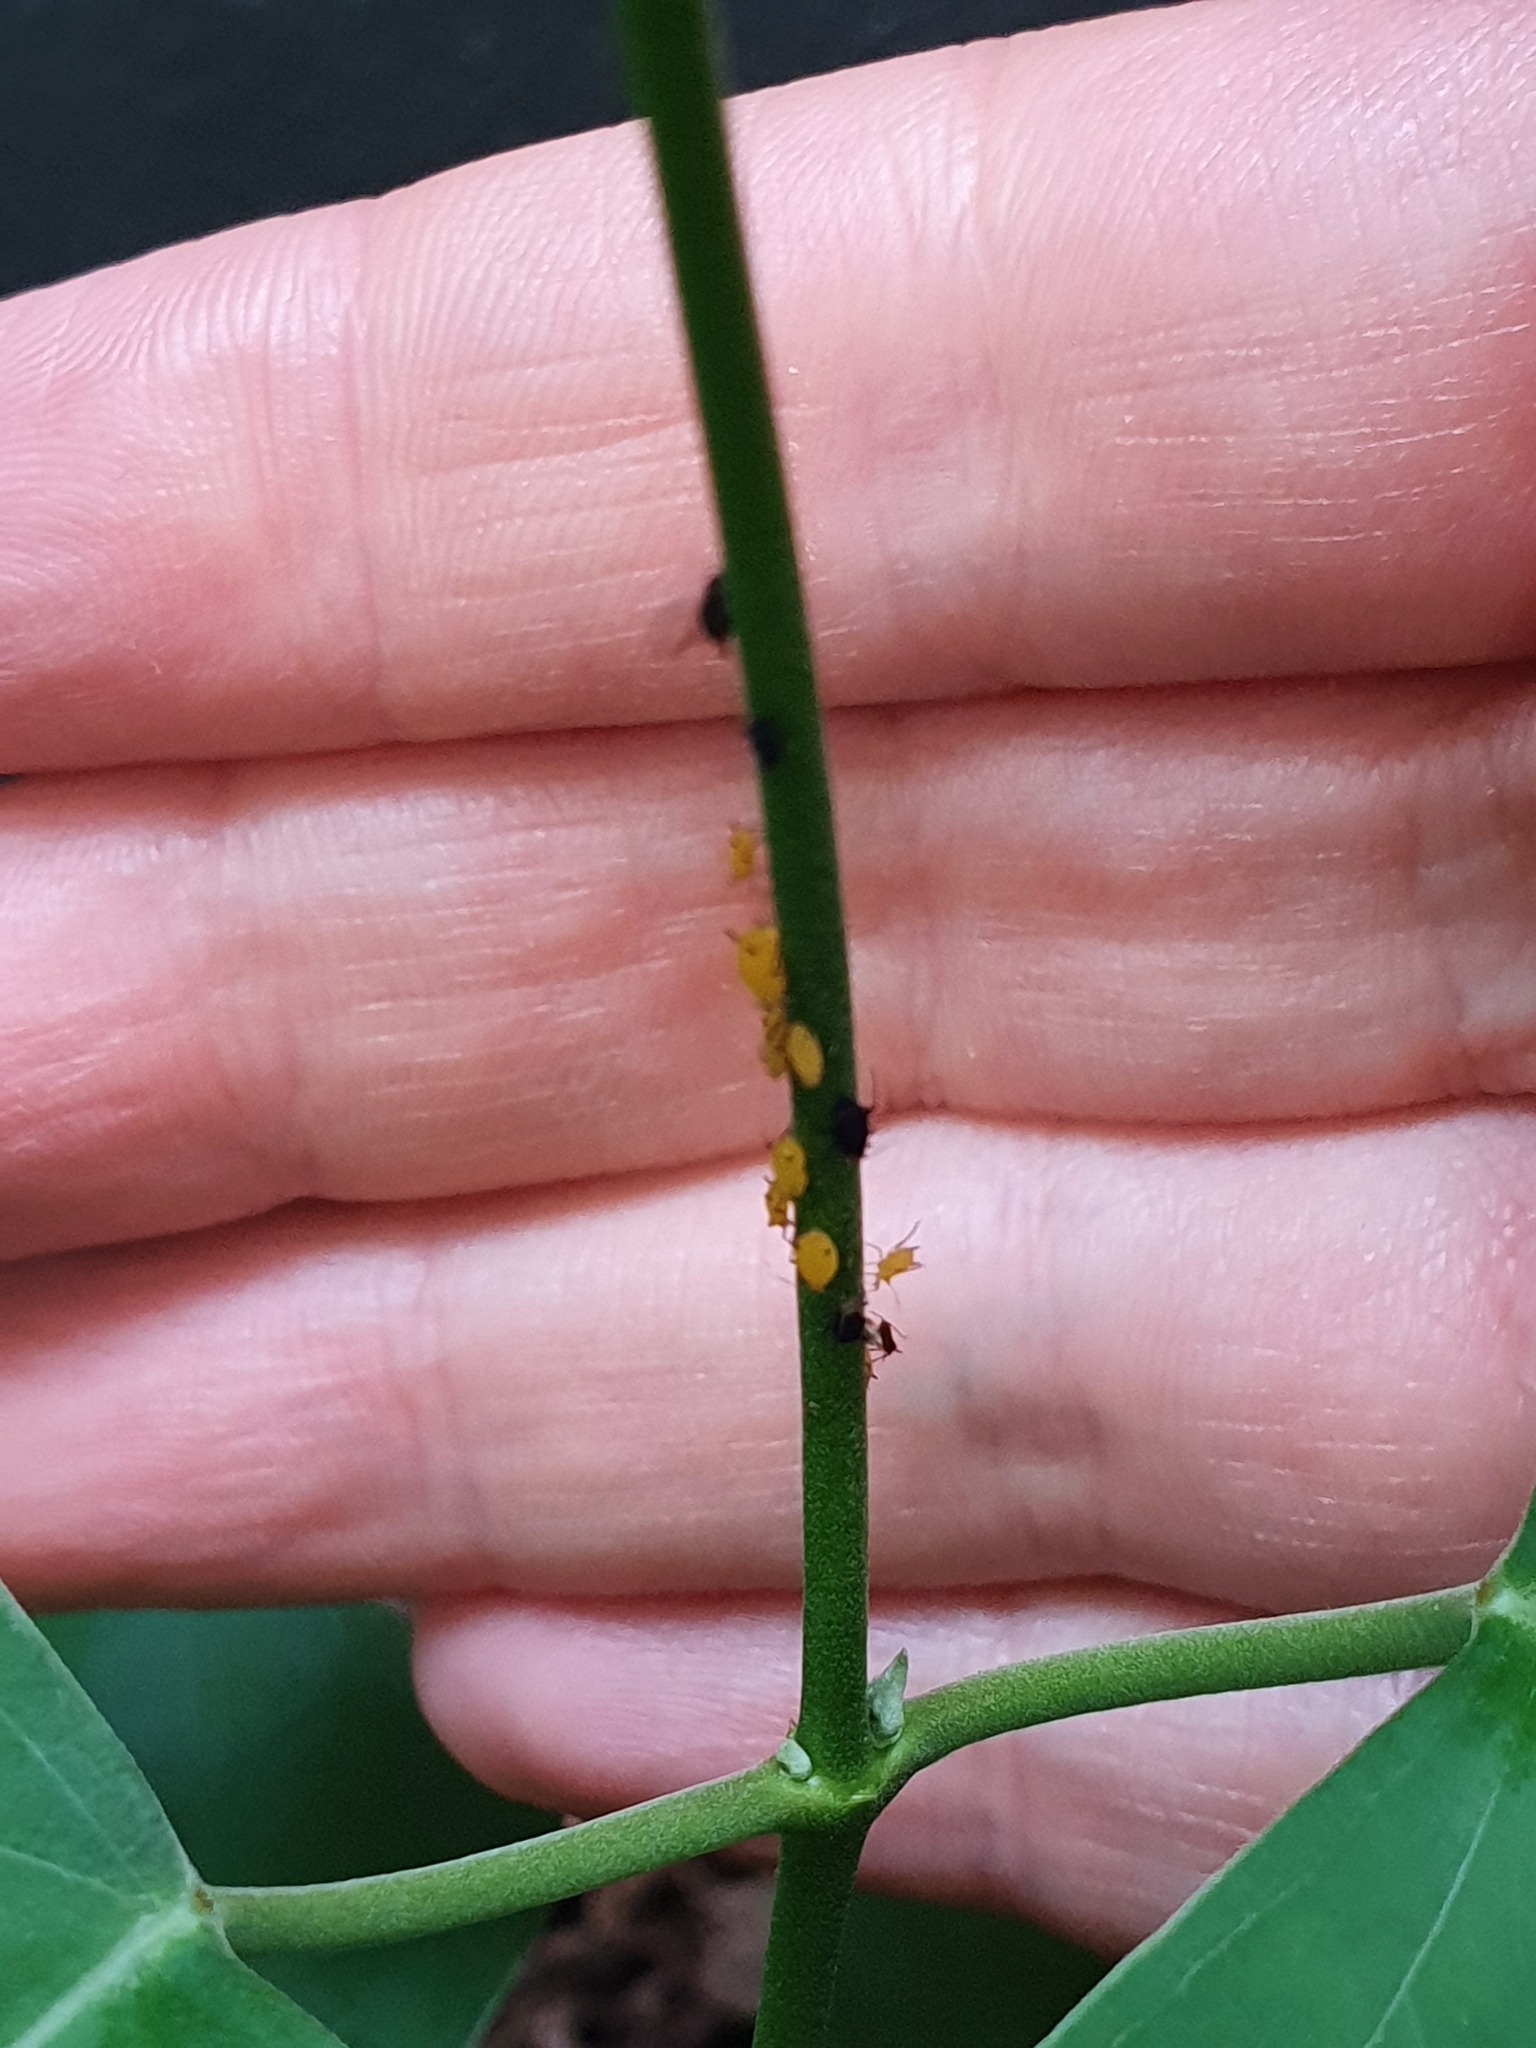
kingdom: Animalia
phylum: Arthropoda
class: Insecta
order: Hemiptera
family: Aphididae
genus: Aphis
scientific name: Aphis nerii
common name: Oleander aphid
